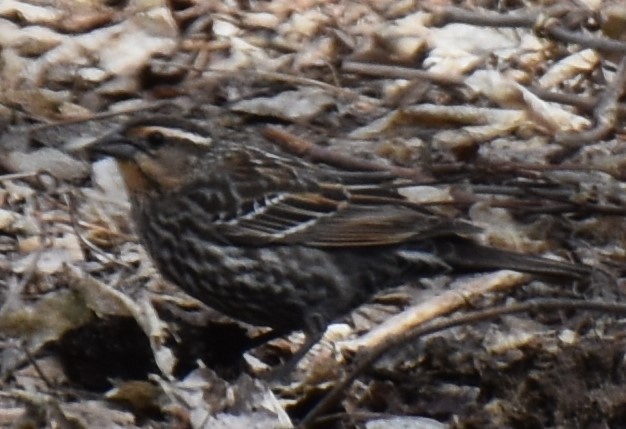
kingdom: Animalia
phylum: Chordata
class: Aves
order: Passeriformes
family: Icteridae
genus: Agelaius
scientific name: Agelaius phoeniceus
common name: Red-winged blackbird
